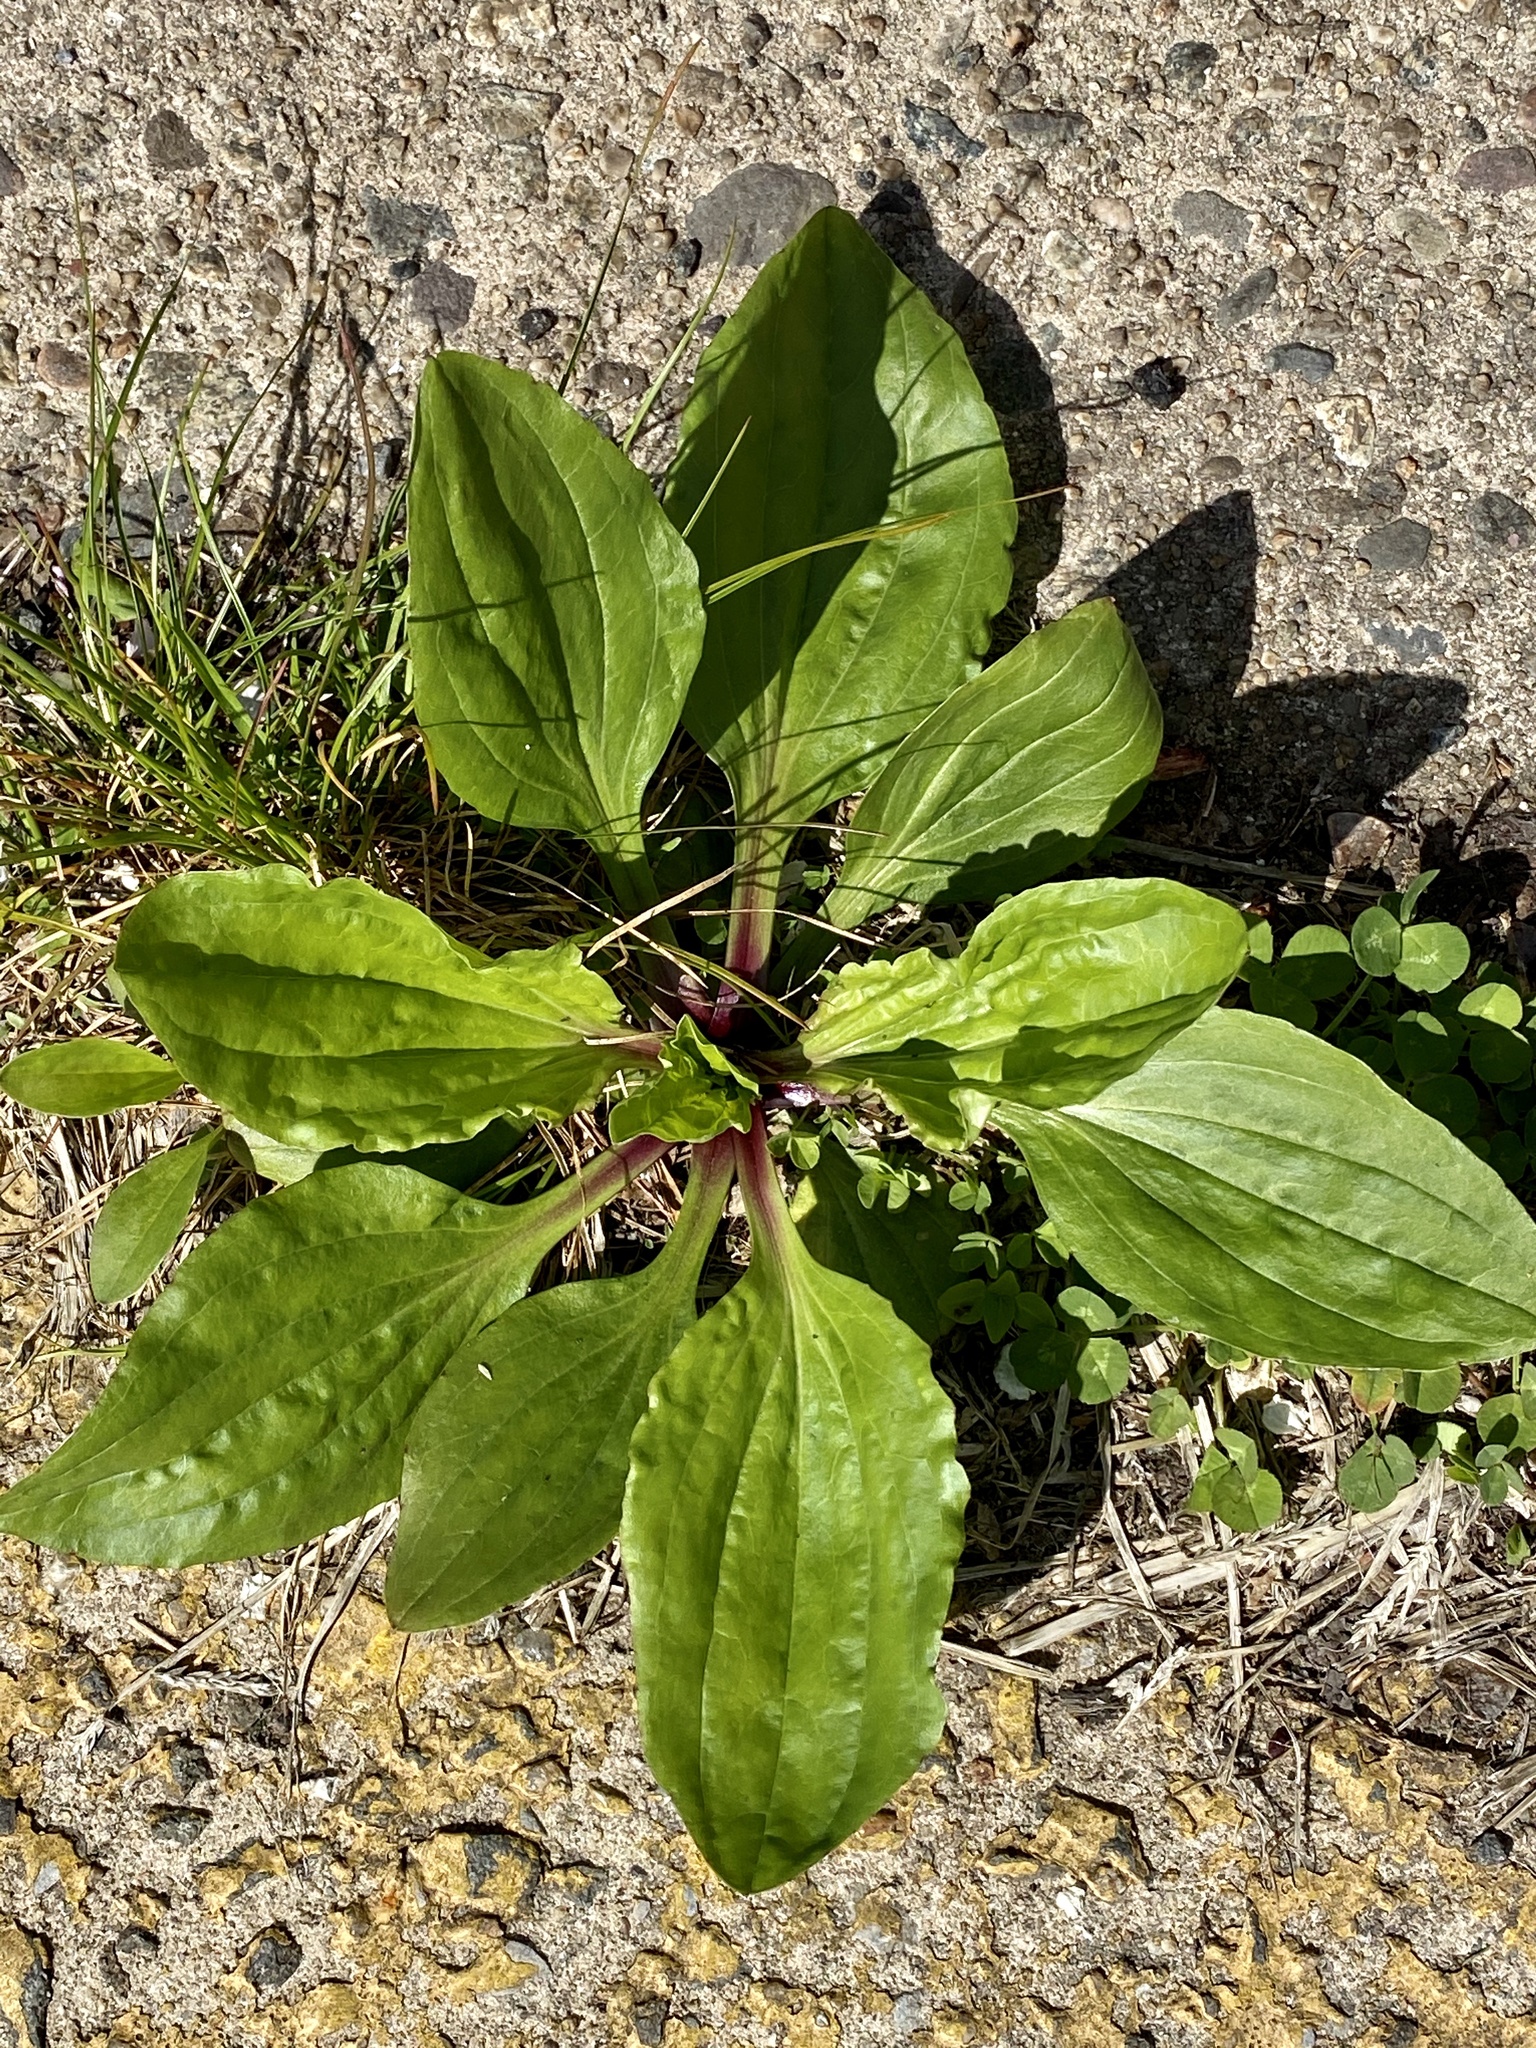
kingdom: Plantae
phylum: Tracheophyta
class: Magnoliopsida
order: Lamiales
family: Plantaginaceae
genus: Plantago
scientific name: Plantago rugelii
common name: American plantain
